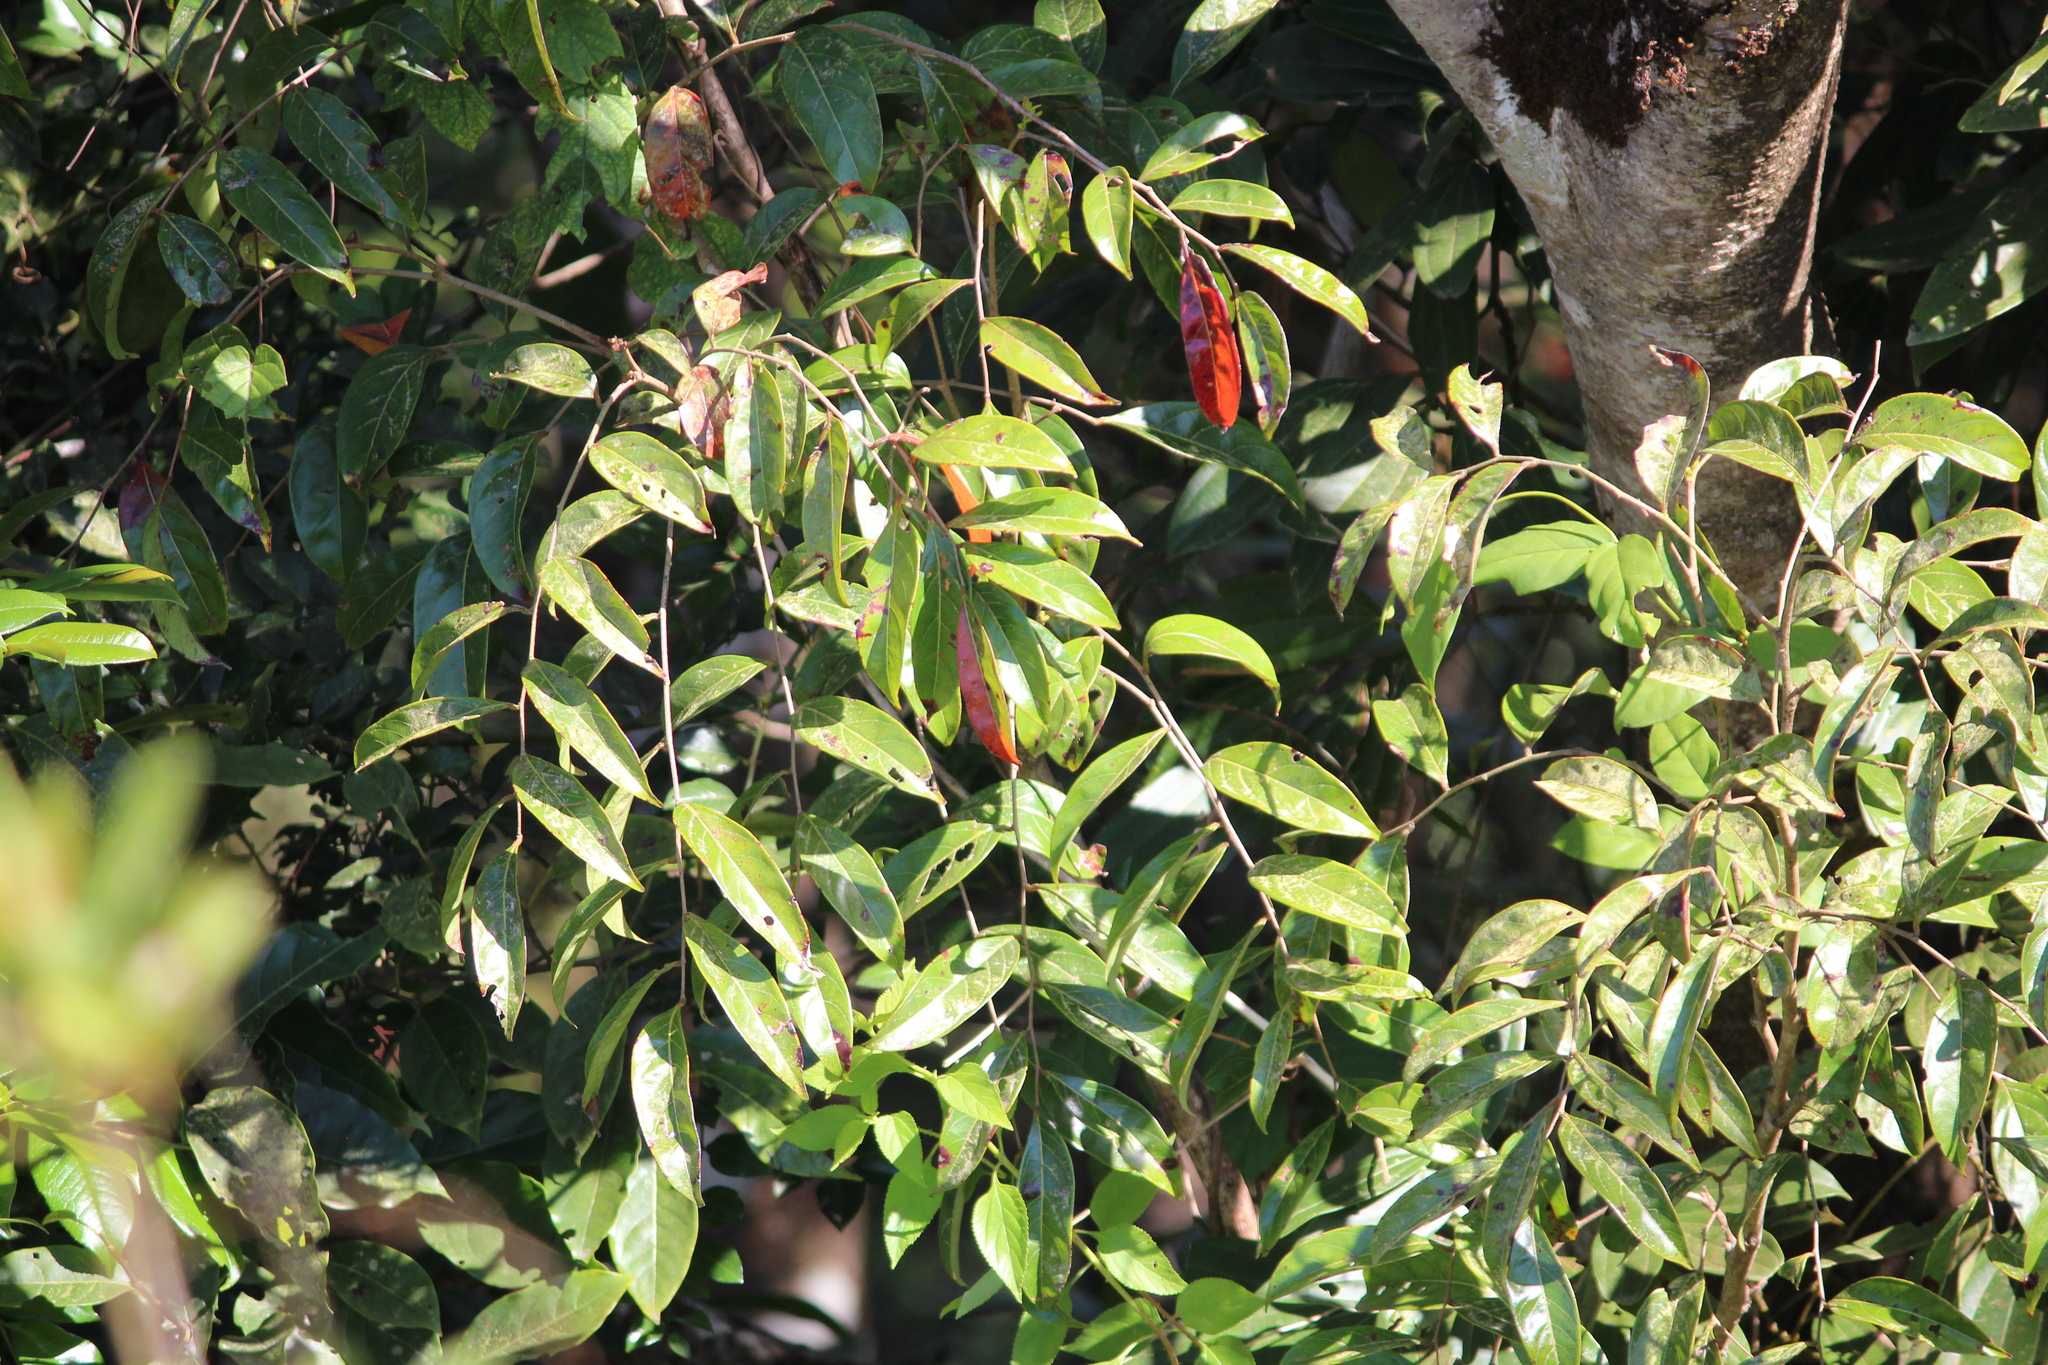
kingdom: Plantae
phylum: Tracheophyta
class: Magnoliopsida
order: Malpighiales
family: Phyllanthaceae
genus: Glochidion
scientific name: Glochidion ellipticum
